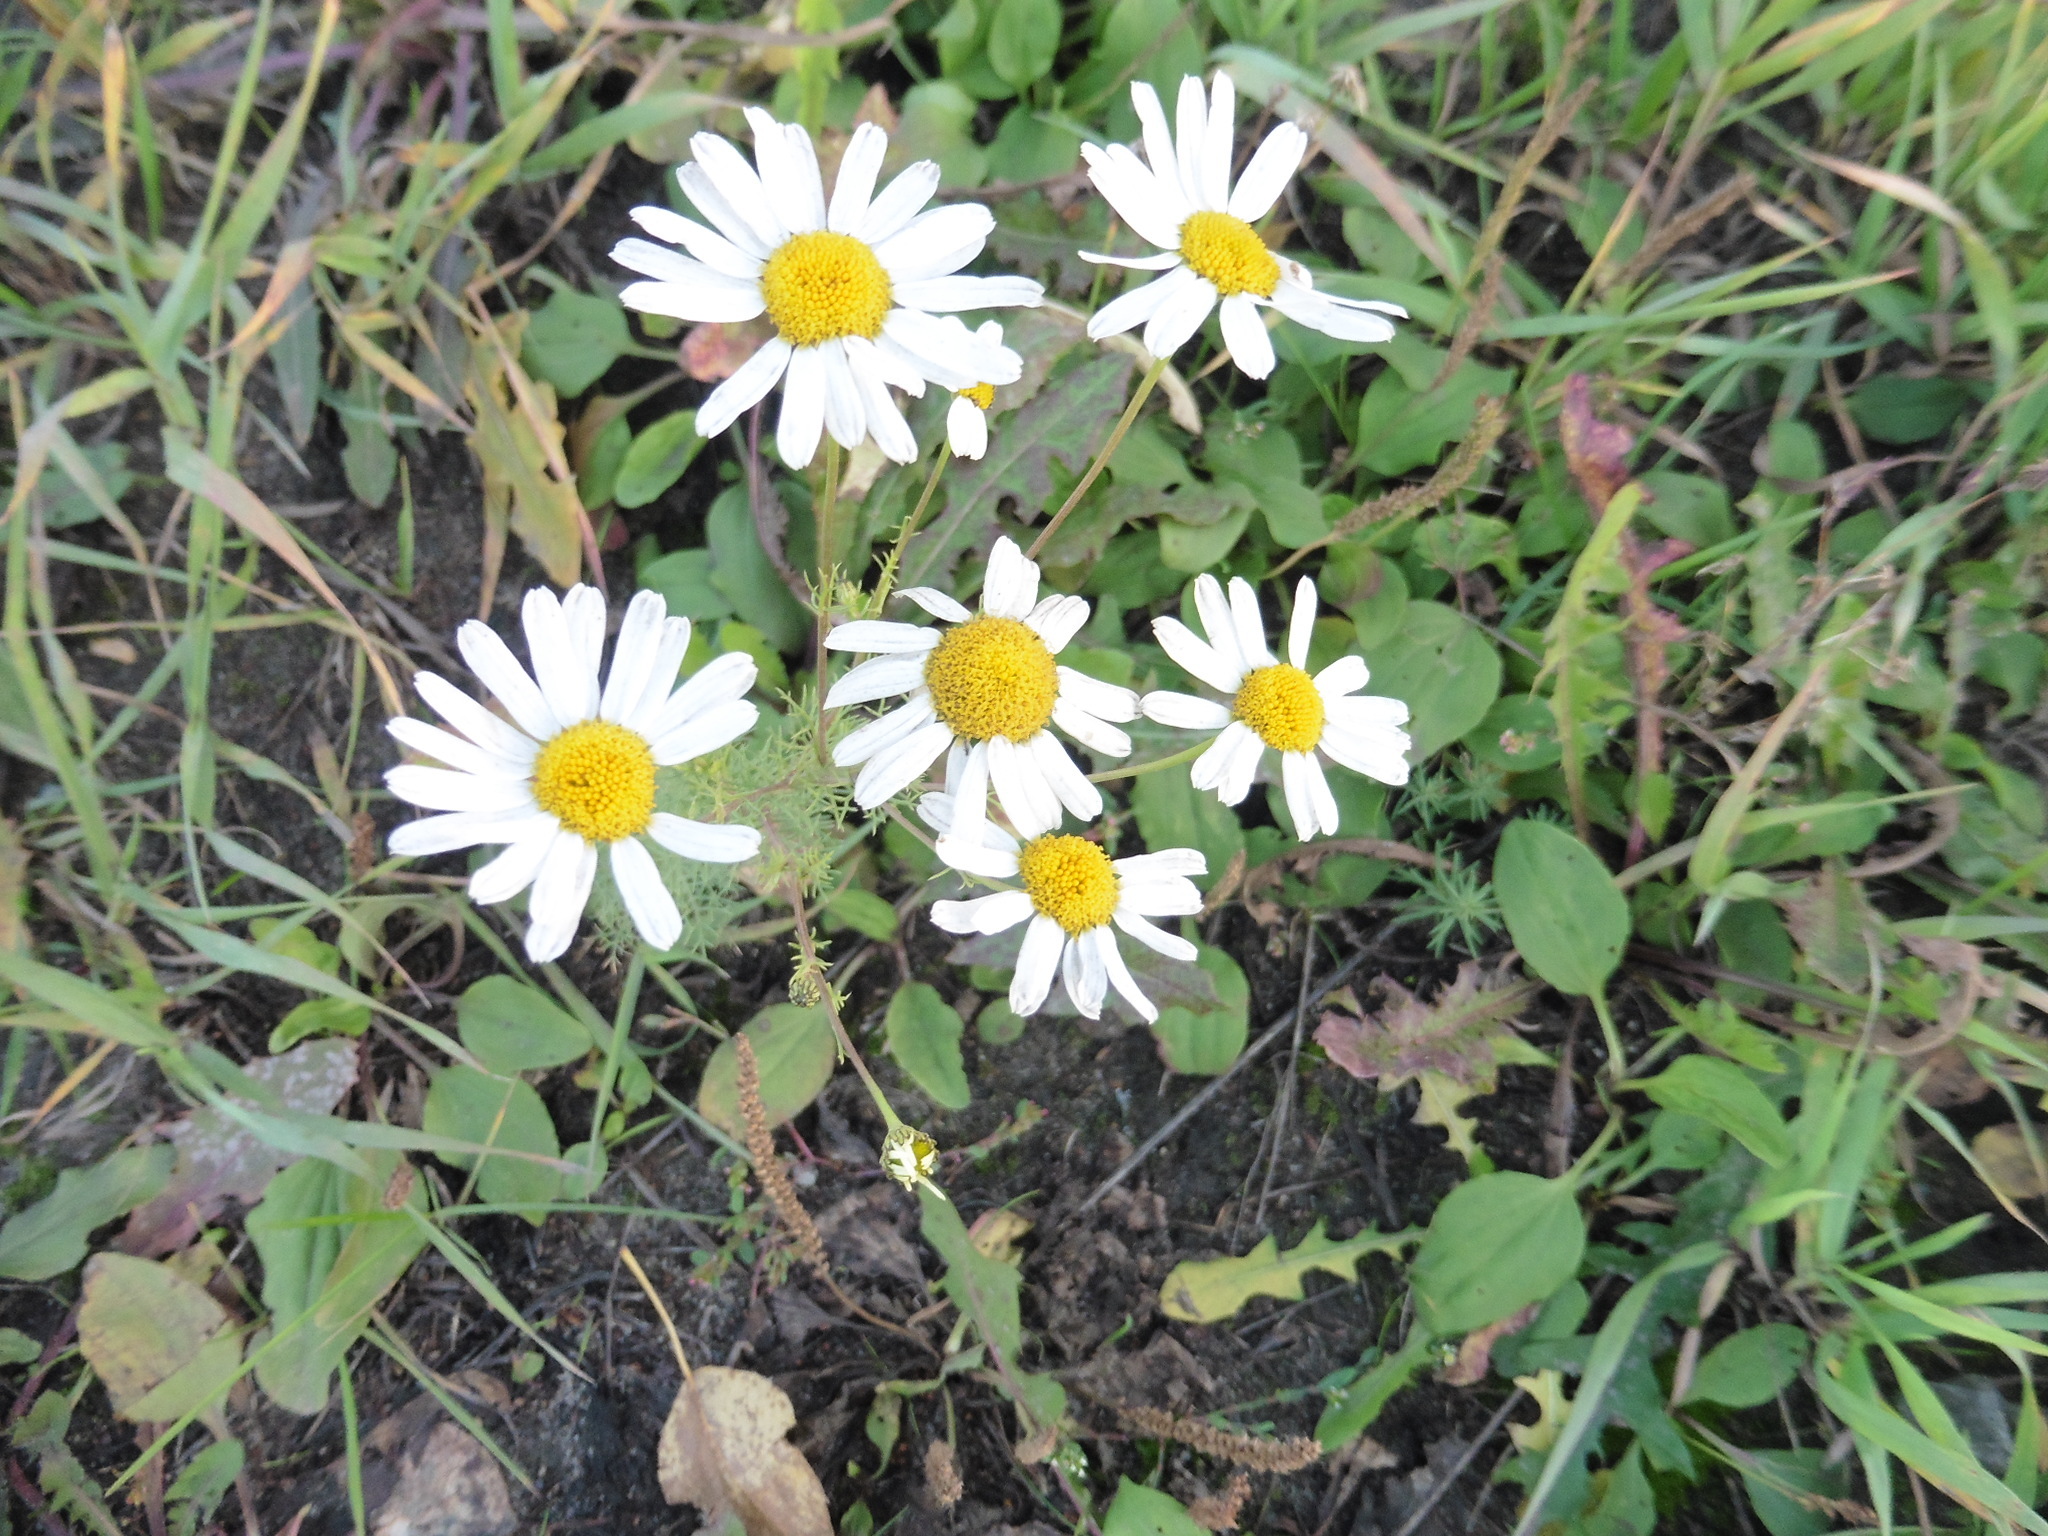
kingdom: Plantae
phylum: Tracheophyta
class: Magnoliopsida
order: Asterales
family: Asteraceae
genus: Tripleurospermum
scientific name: Tripleurospermum inodorum
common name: Scentless mayweed
